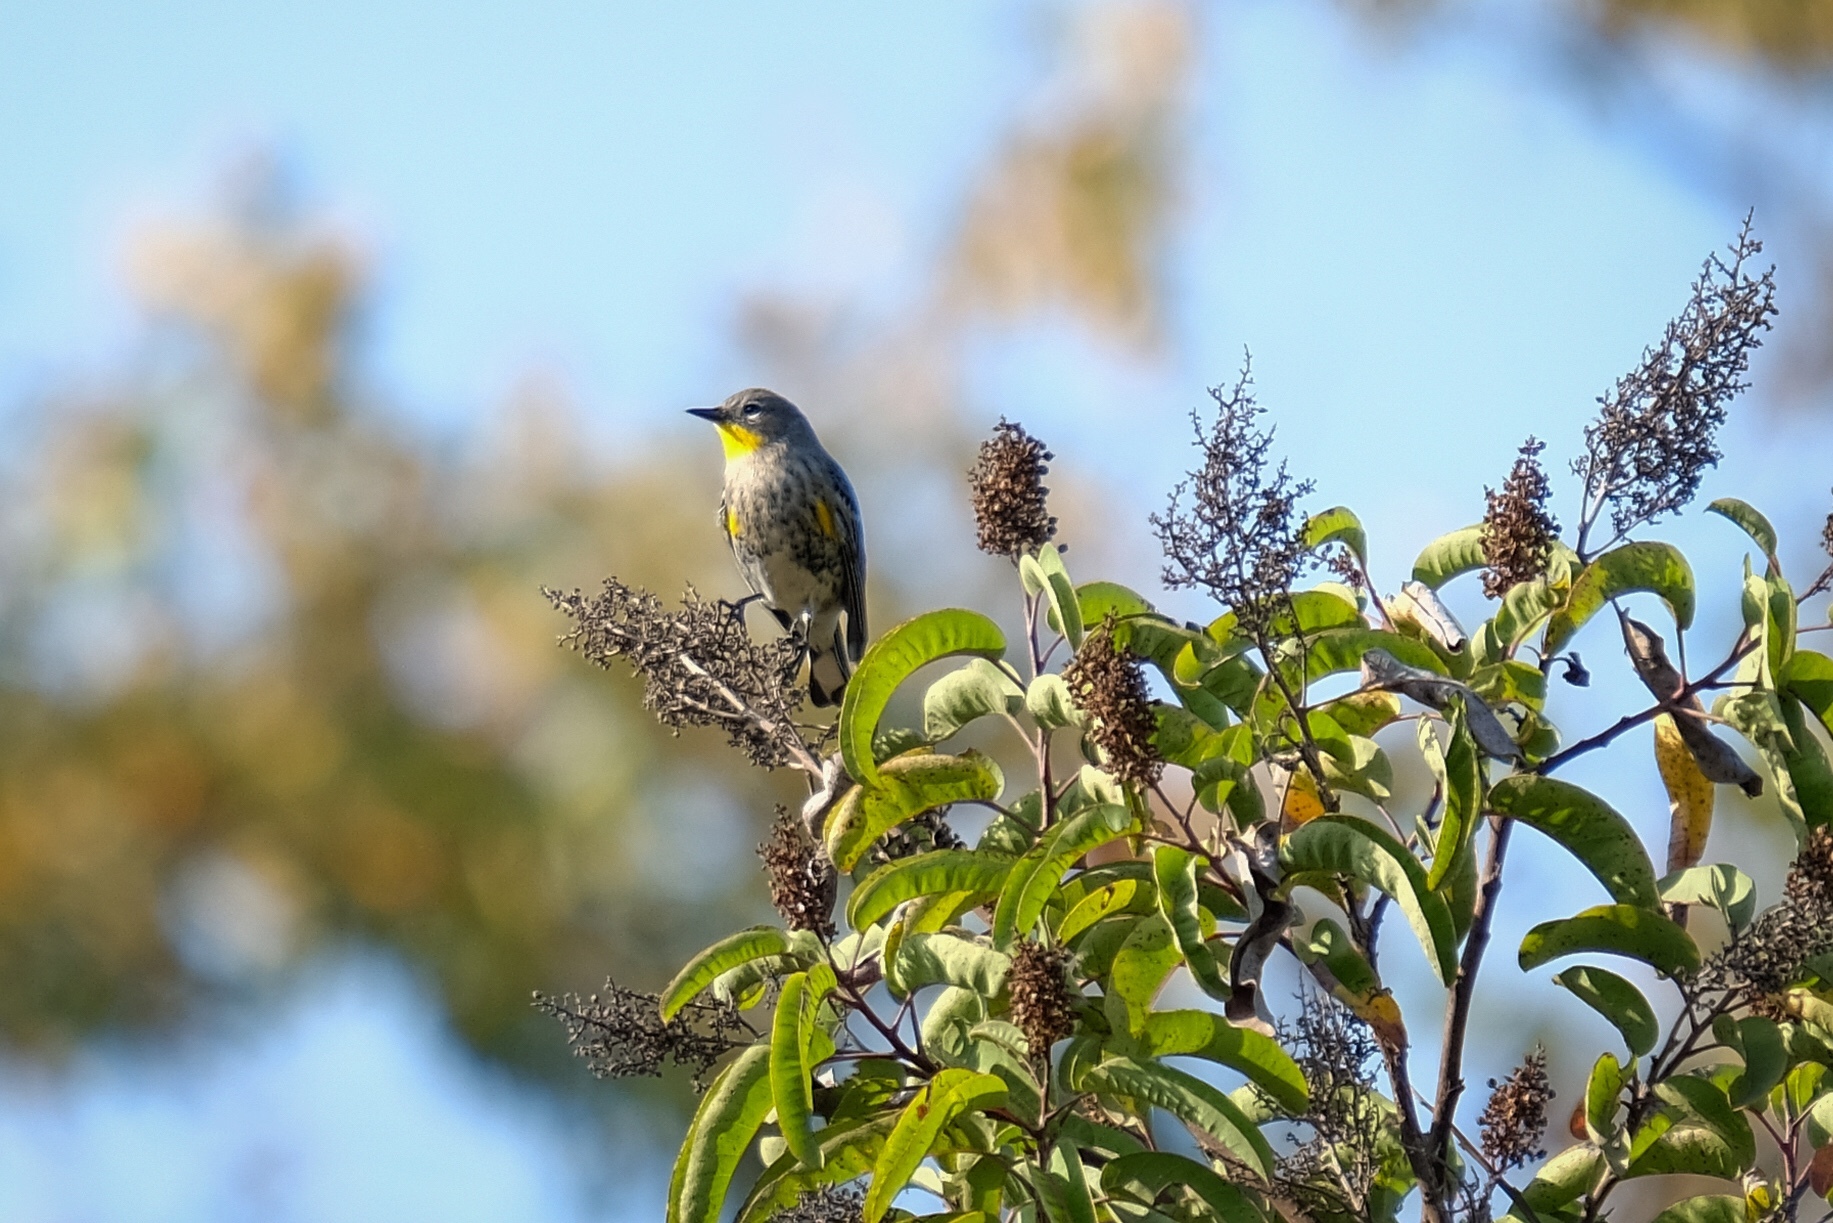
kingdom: Animalia
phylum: Chordata
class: Aves
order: Passeriformes
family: Parulidae
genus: Setophaga
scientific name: Setophaga auduboni
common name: Audubon's warbler
